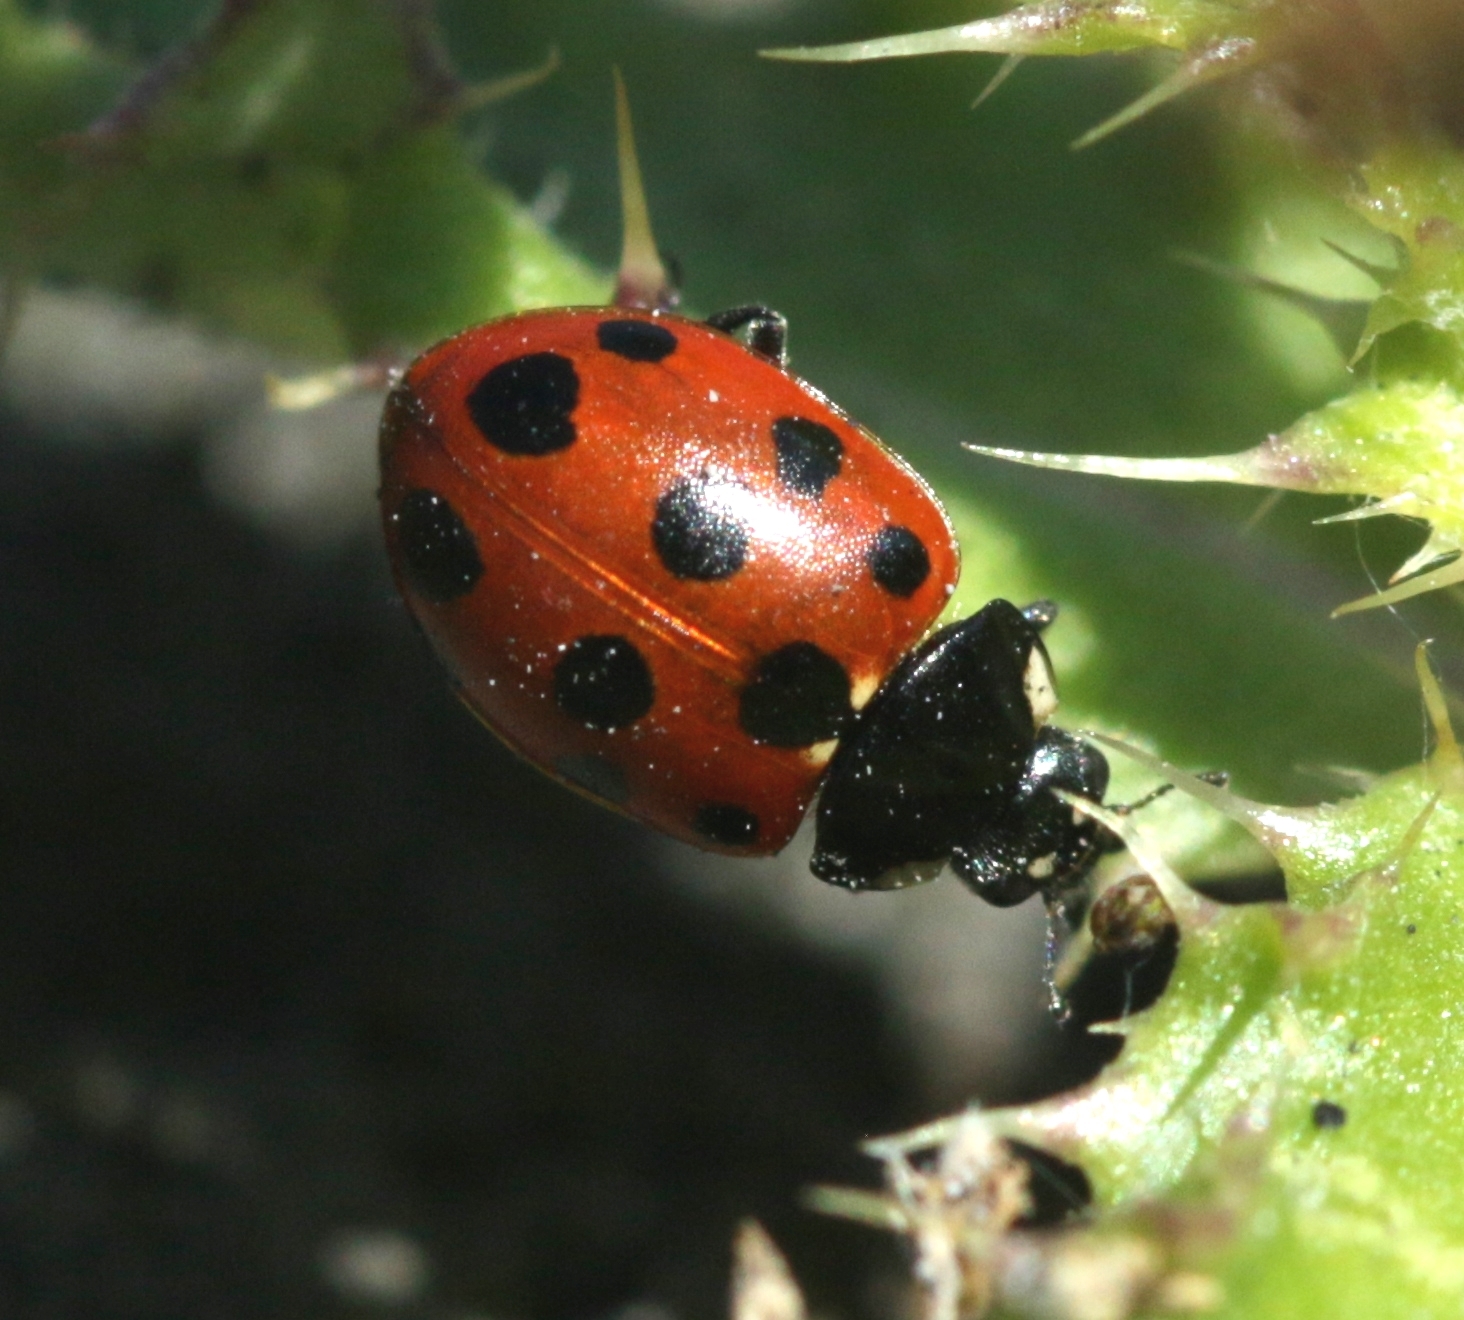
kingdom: Animalia
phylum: Arthropoda
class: Insecta
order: Coleoptera
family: Coccinellidae
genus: Coccinella
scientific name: Coccinella undecimpunctata
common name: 11-spot ladybird
